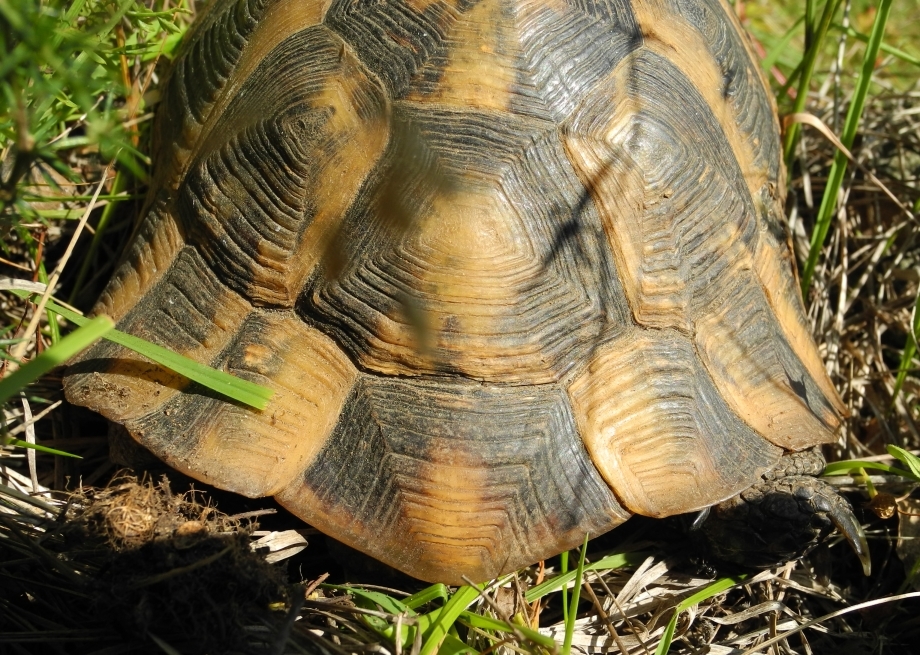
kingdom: Animalia
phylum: Chordata
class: Testudines
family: Testudinidae
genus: Testudo
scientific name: Testudo graeca
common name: Common tortoise
